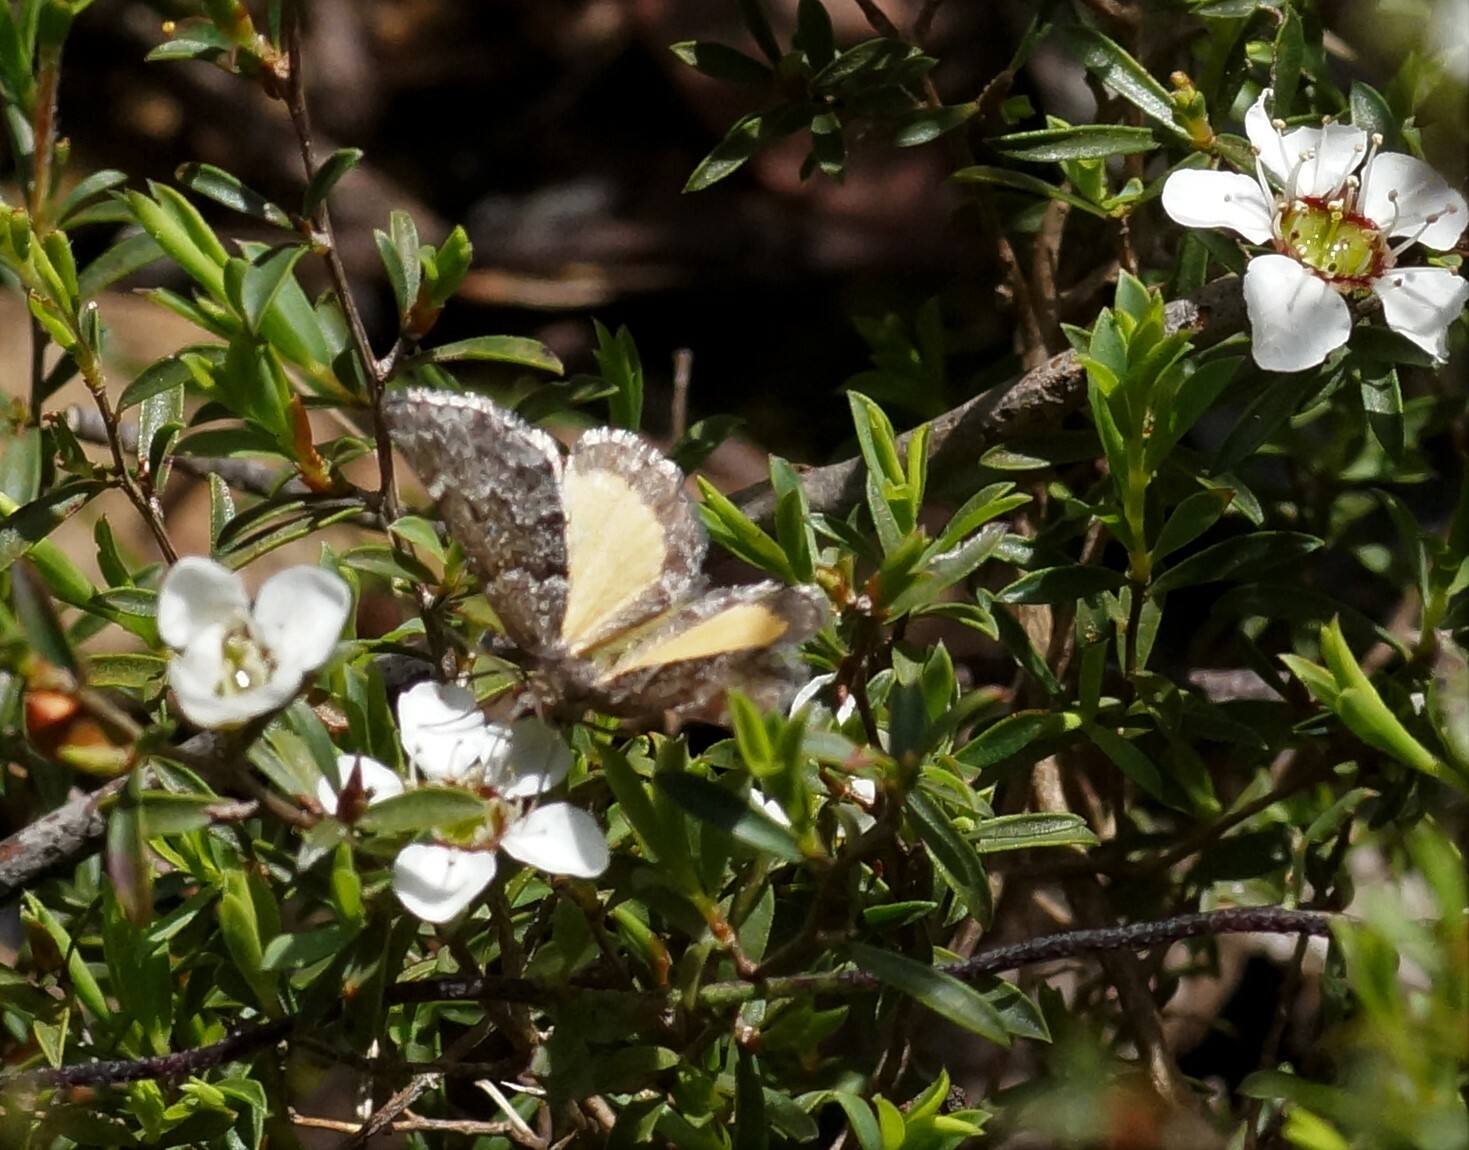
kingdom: Animalia
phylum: Arthropoda
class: Insecta
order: Lepidoptera
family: Geometridae
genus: Dichromodes
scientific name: Dichromodes ainaria
